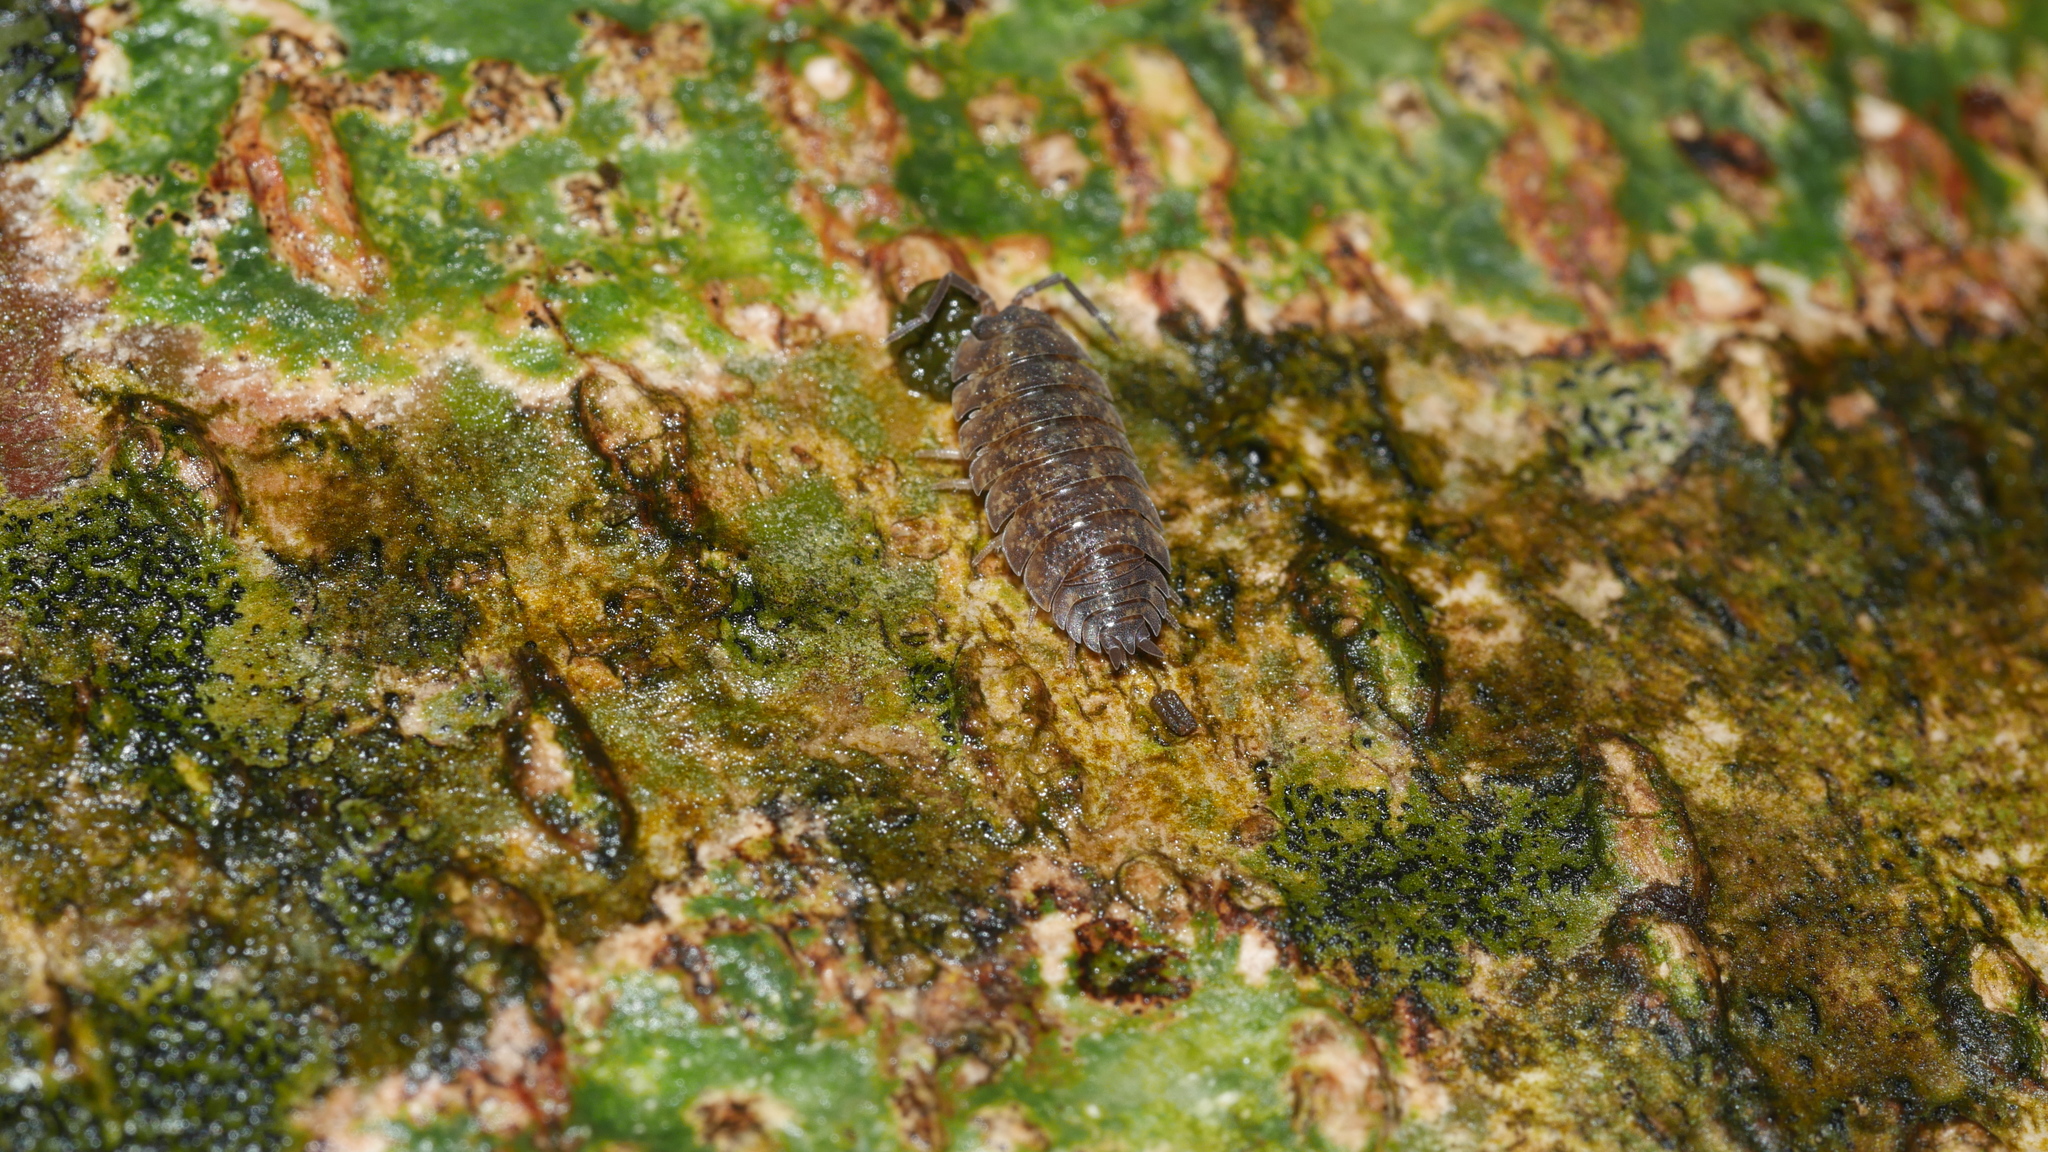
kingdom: Animalia
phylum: Arthropoda
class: Malacostraca
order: Isopoda
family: Porcellionidae
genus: Porcellio
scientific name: Porcellio scaber
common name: Common rough woodlouse
